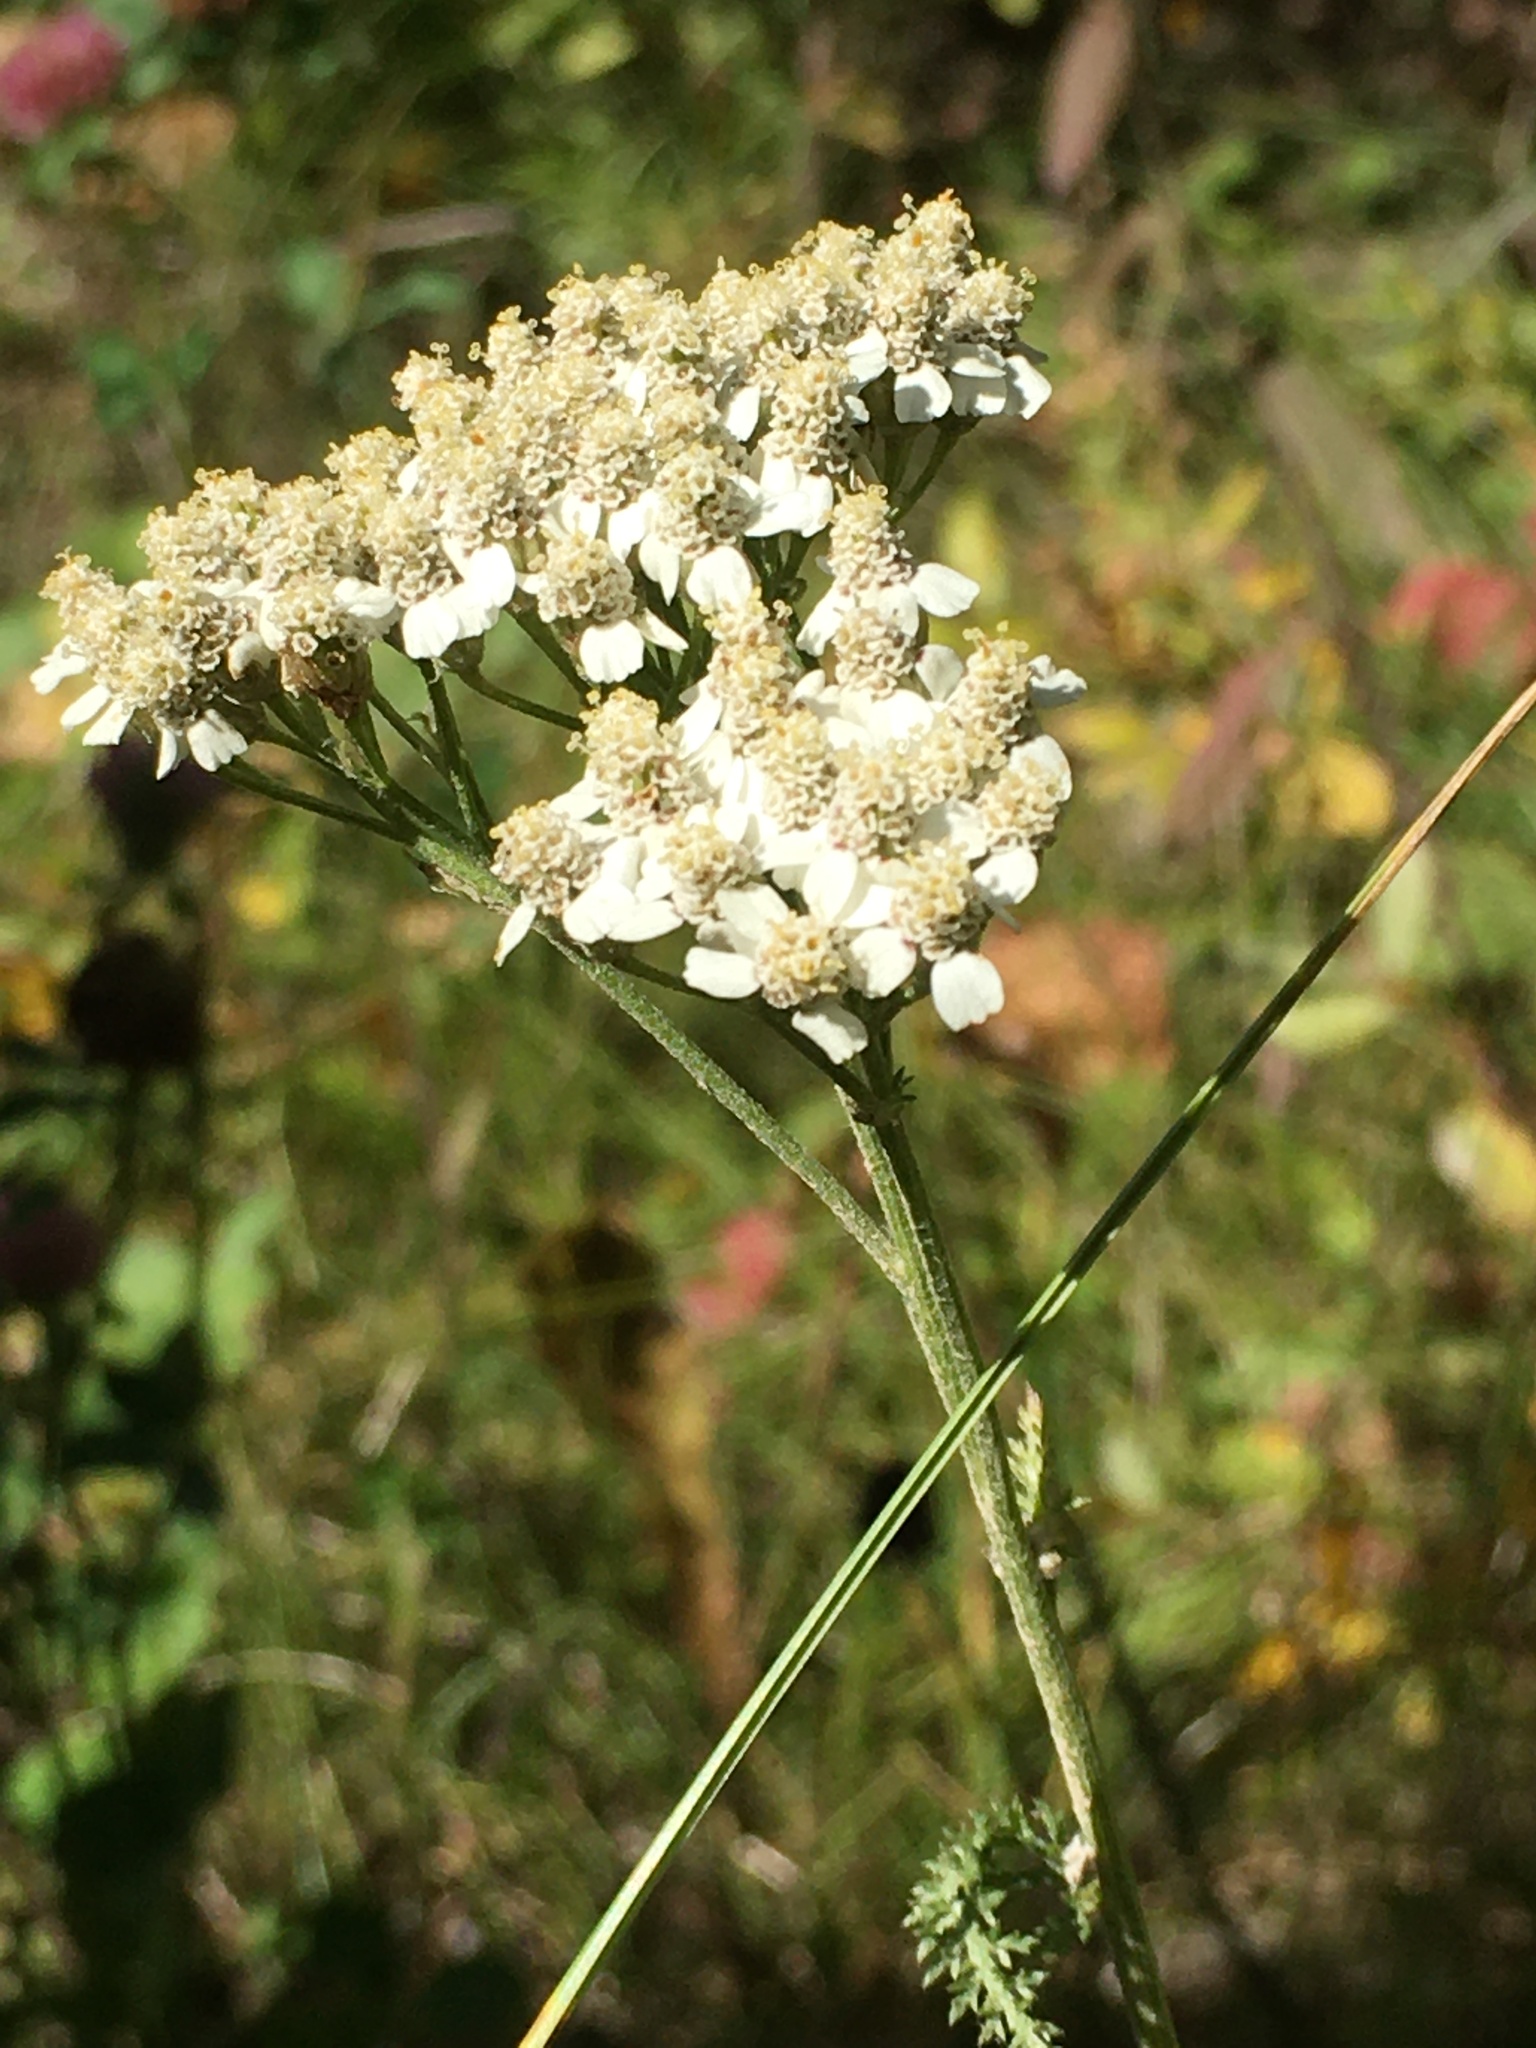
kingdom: Plantae
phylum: Tracheophyta
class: Magnoliopsida
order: Asterales
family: Asteraceae
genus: Achillea
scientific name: Achillea millefolium
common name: Yarrow
